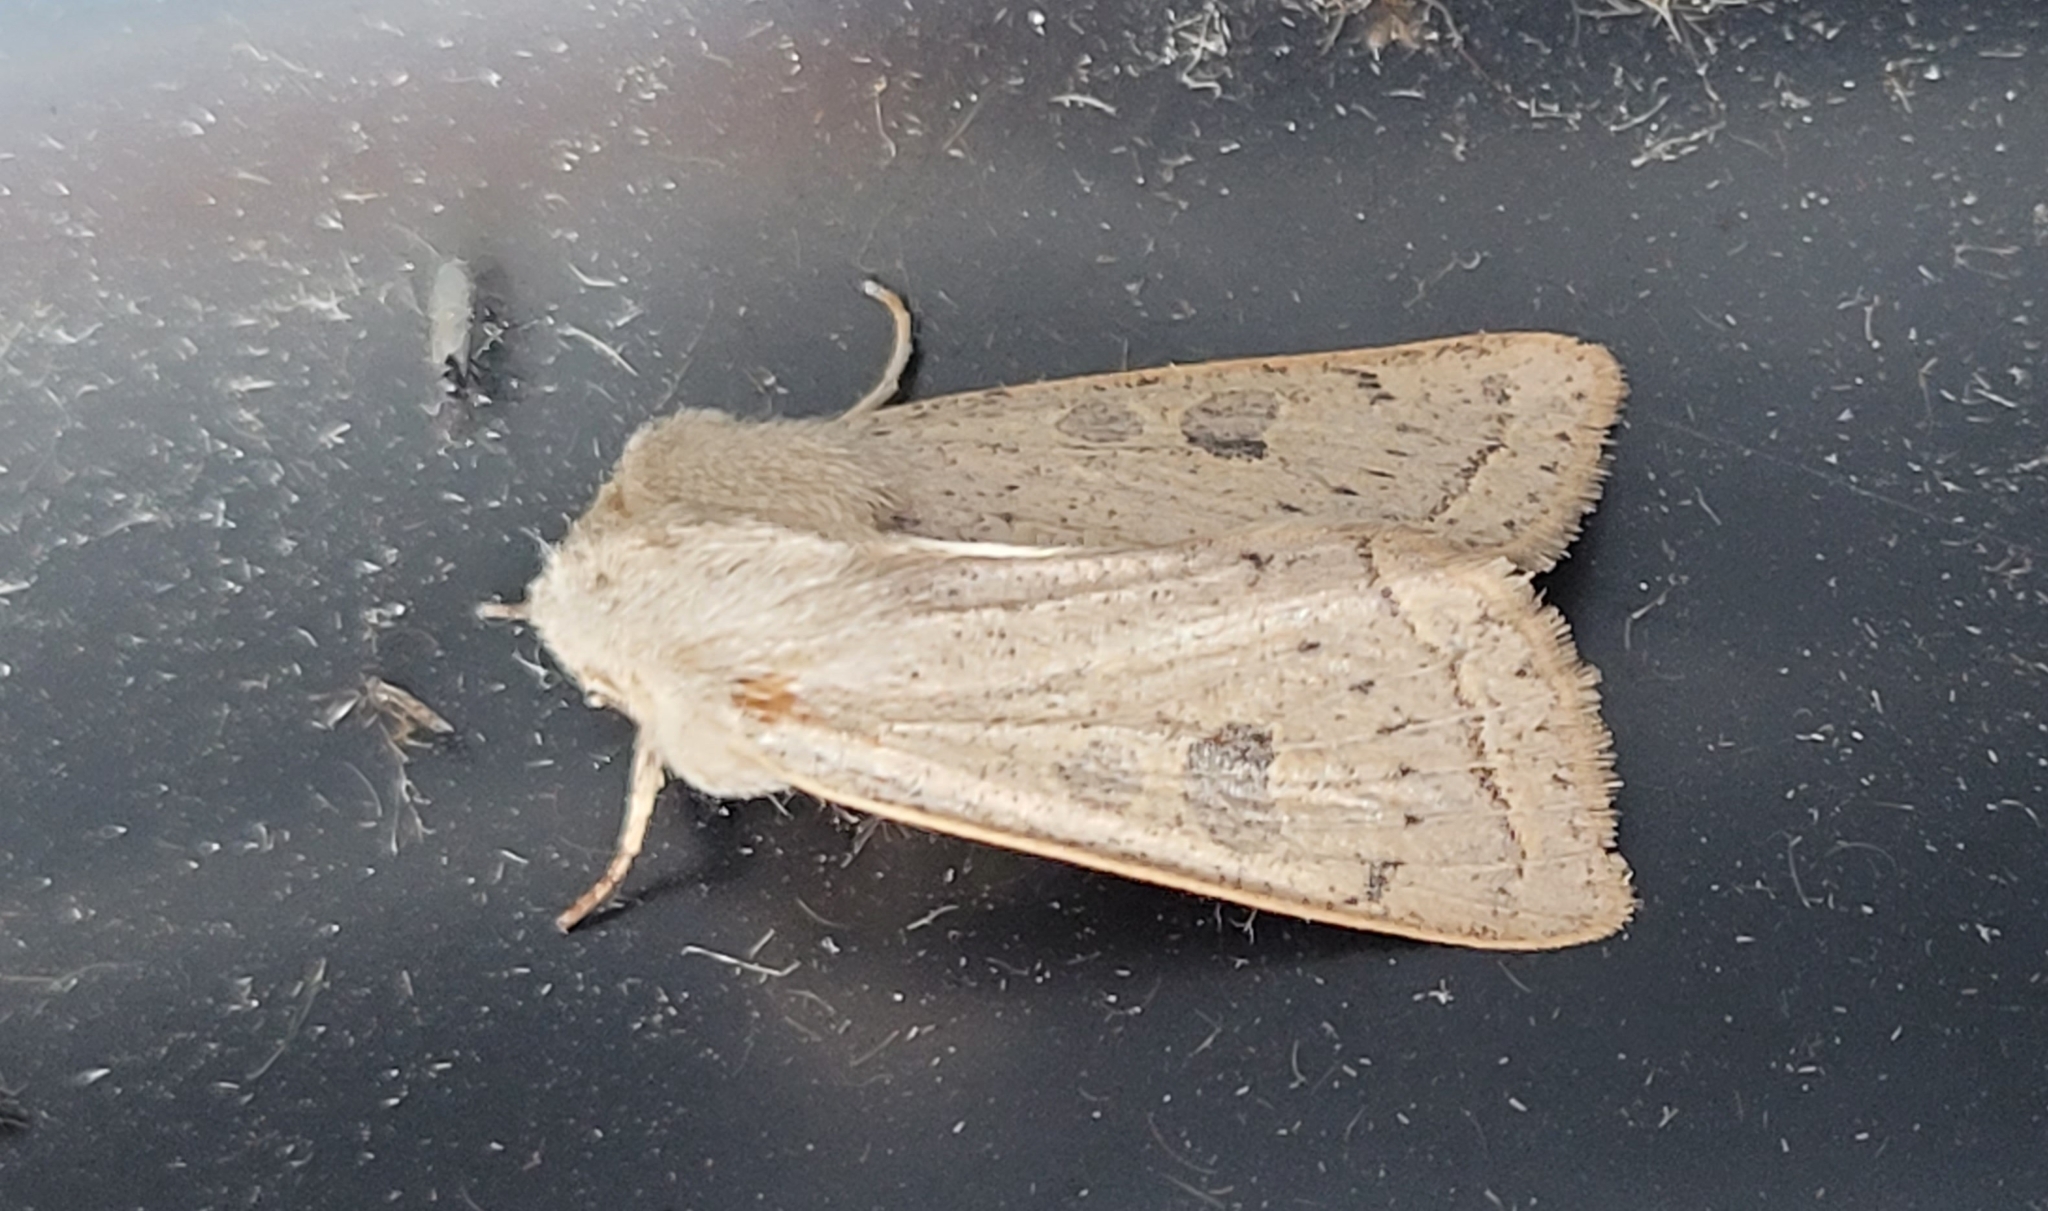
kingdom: Animalia
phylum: Arthropoda
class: Insecta
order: Lepidoptera
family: Noctuidae
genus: Orthosia
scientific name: Orthosia gracilis
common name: Powdered quaker
